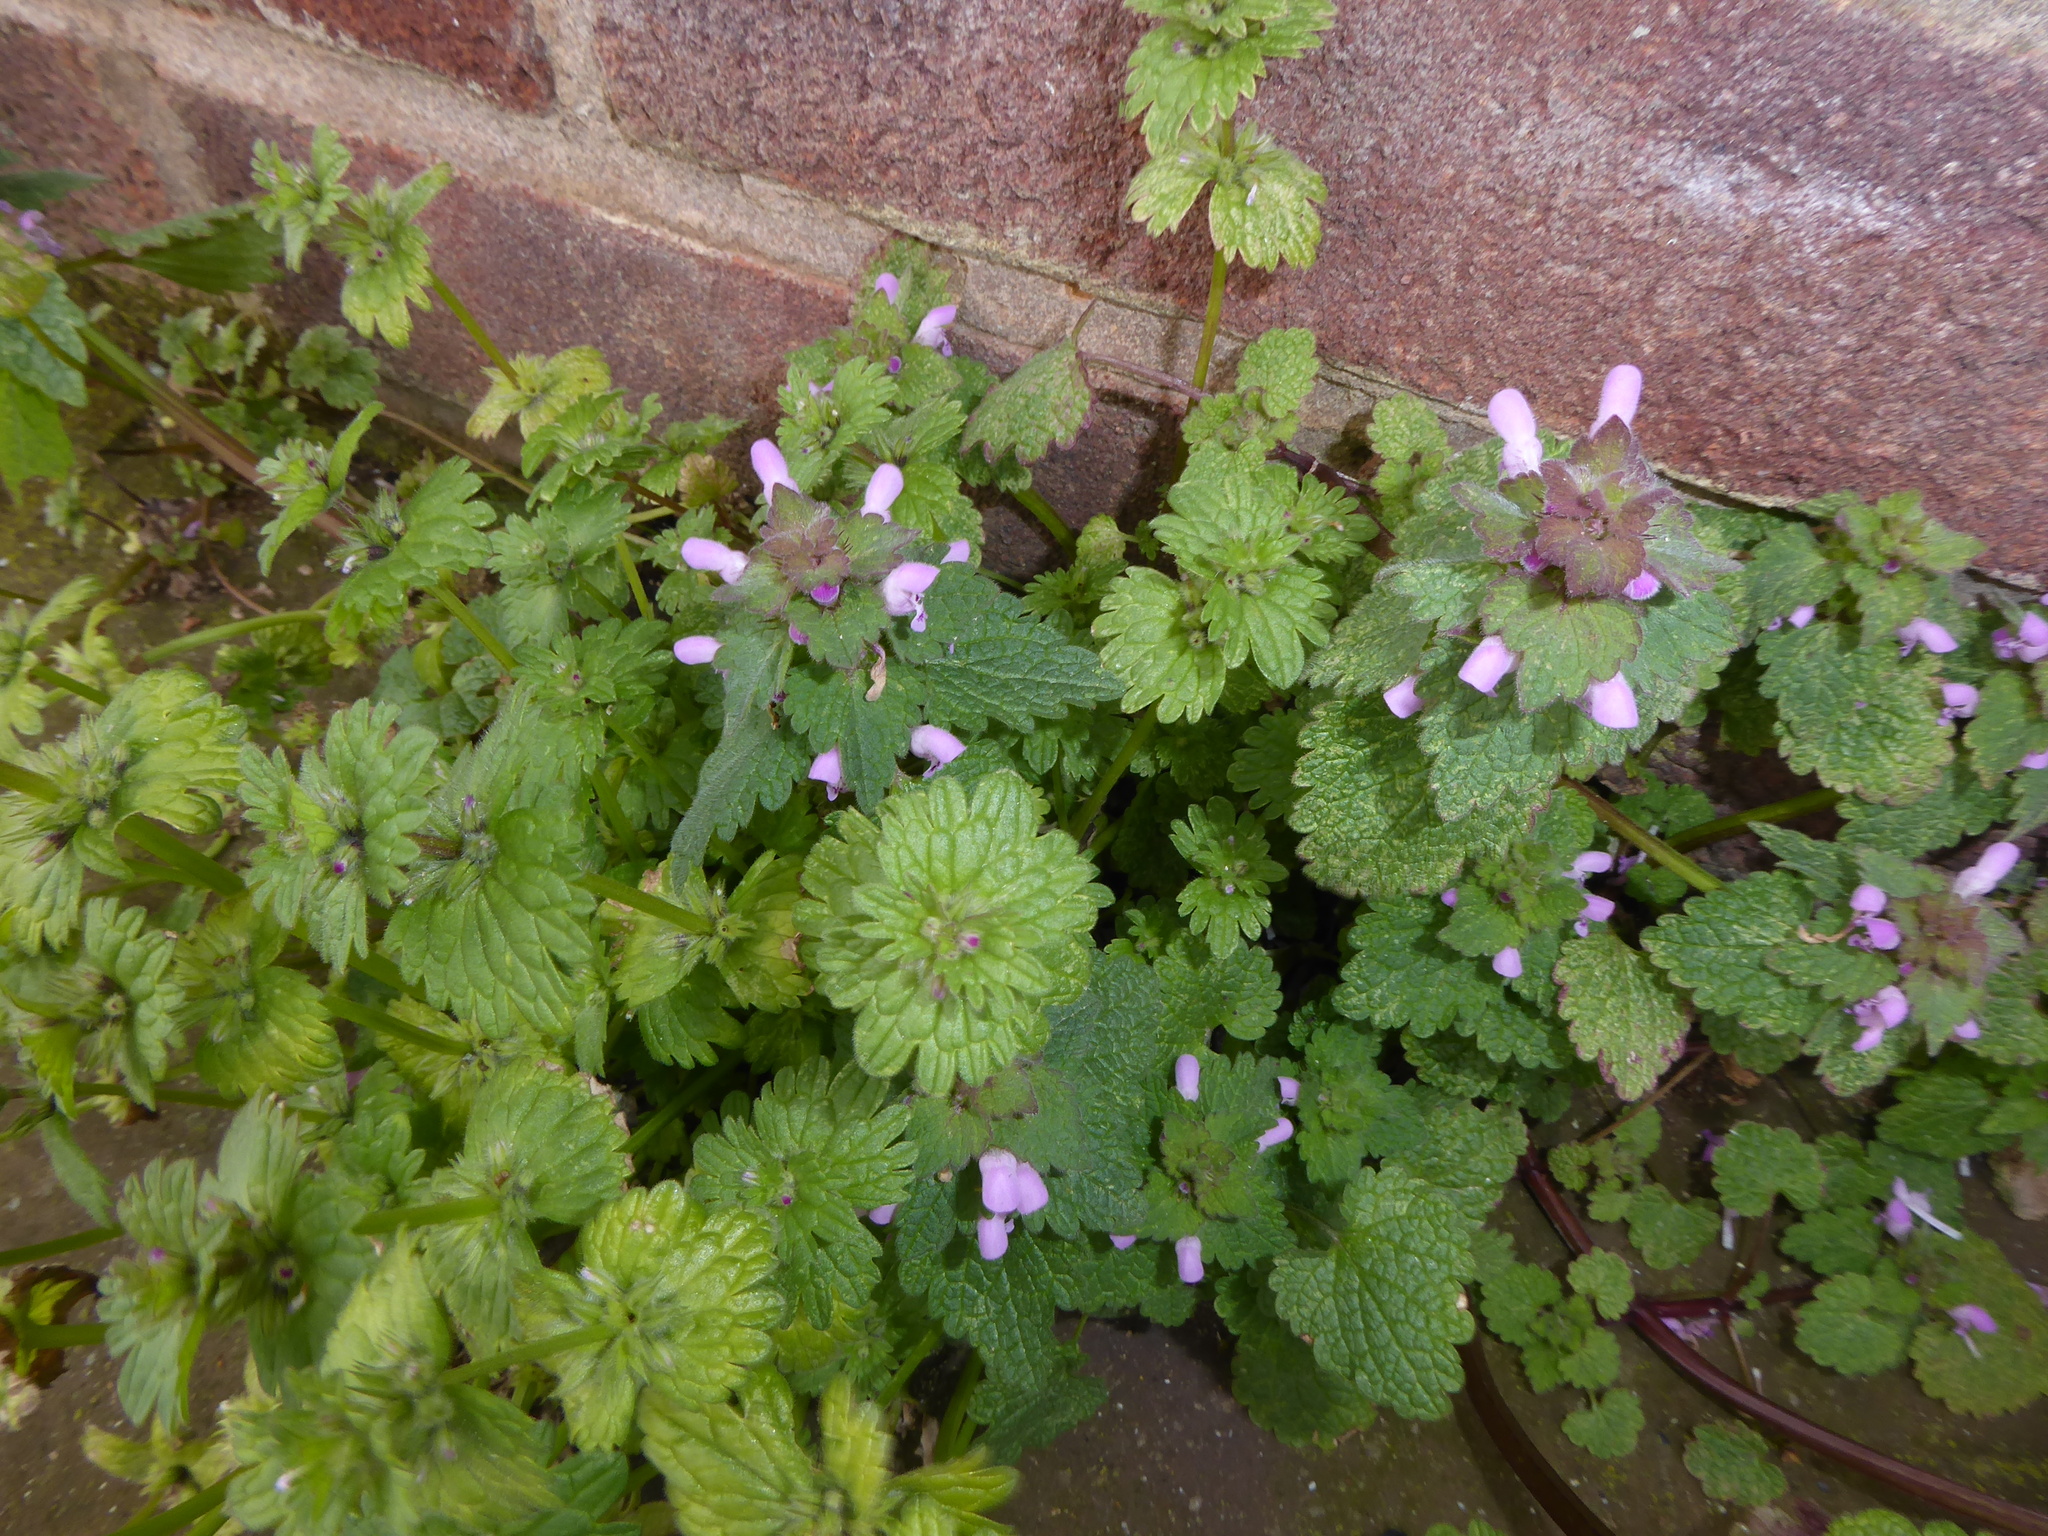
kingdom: Plantae
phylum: Tracheophyta
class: Magnoliopsida
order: Lamiales
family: Lamiaceae
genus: Lamium
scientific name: Lamium amplexicaule
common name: Henbit dead-nettle
